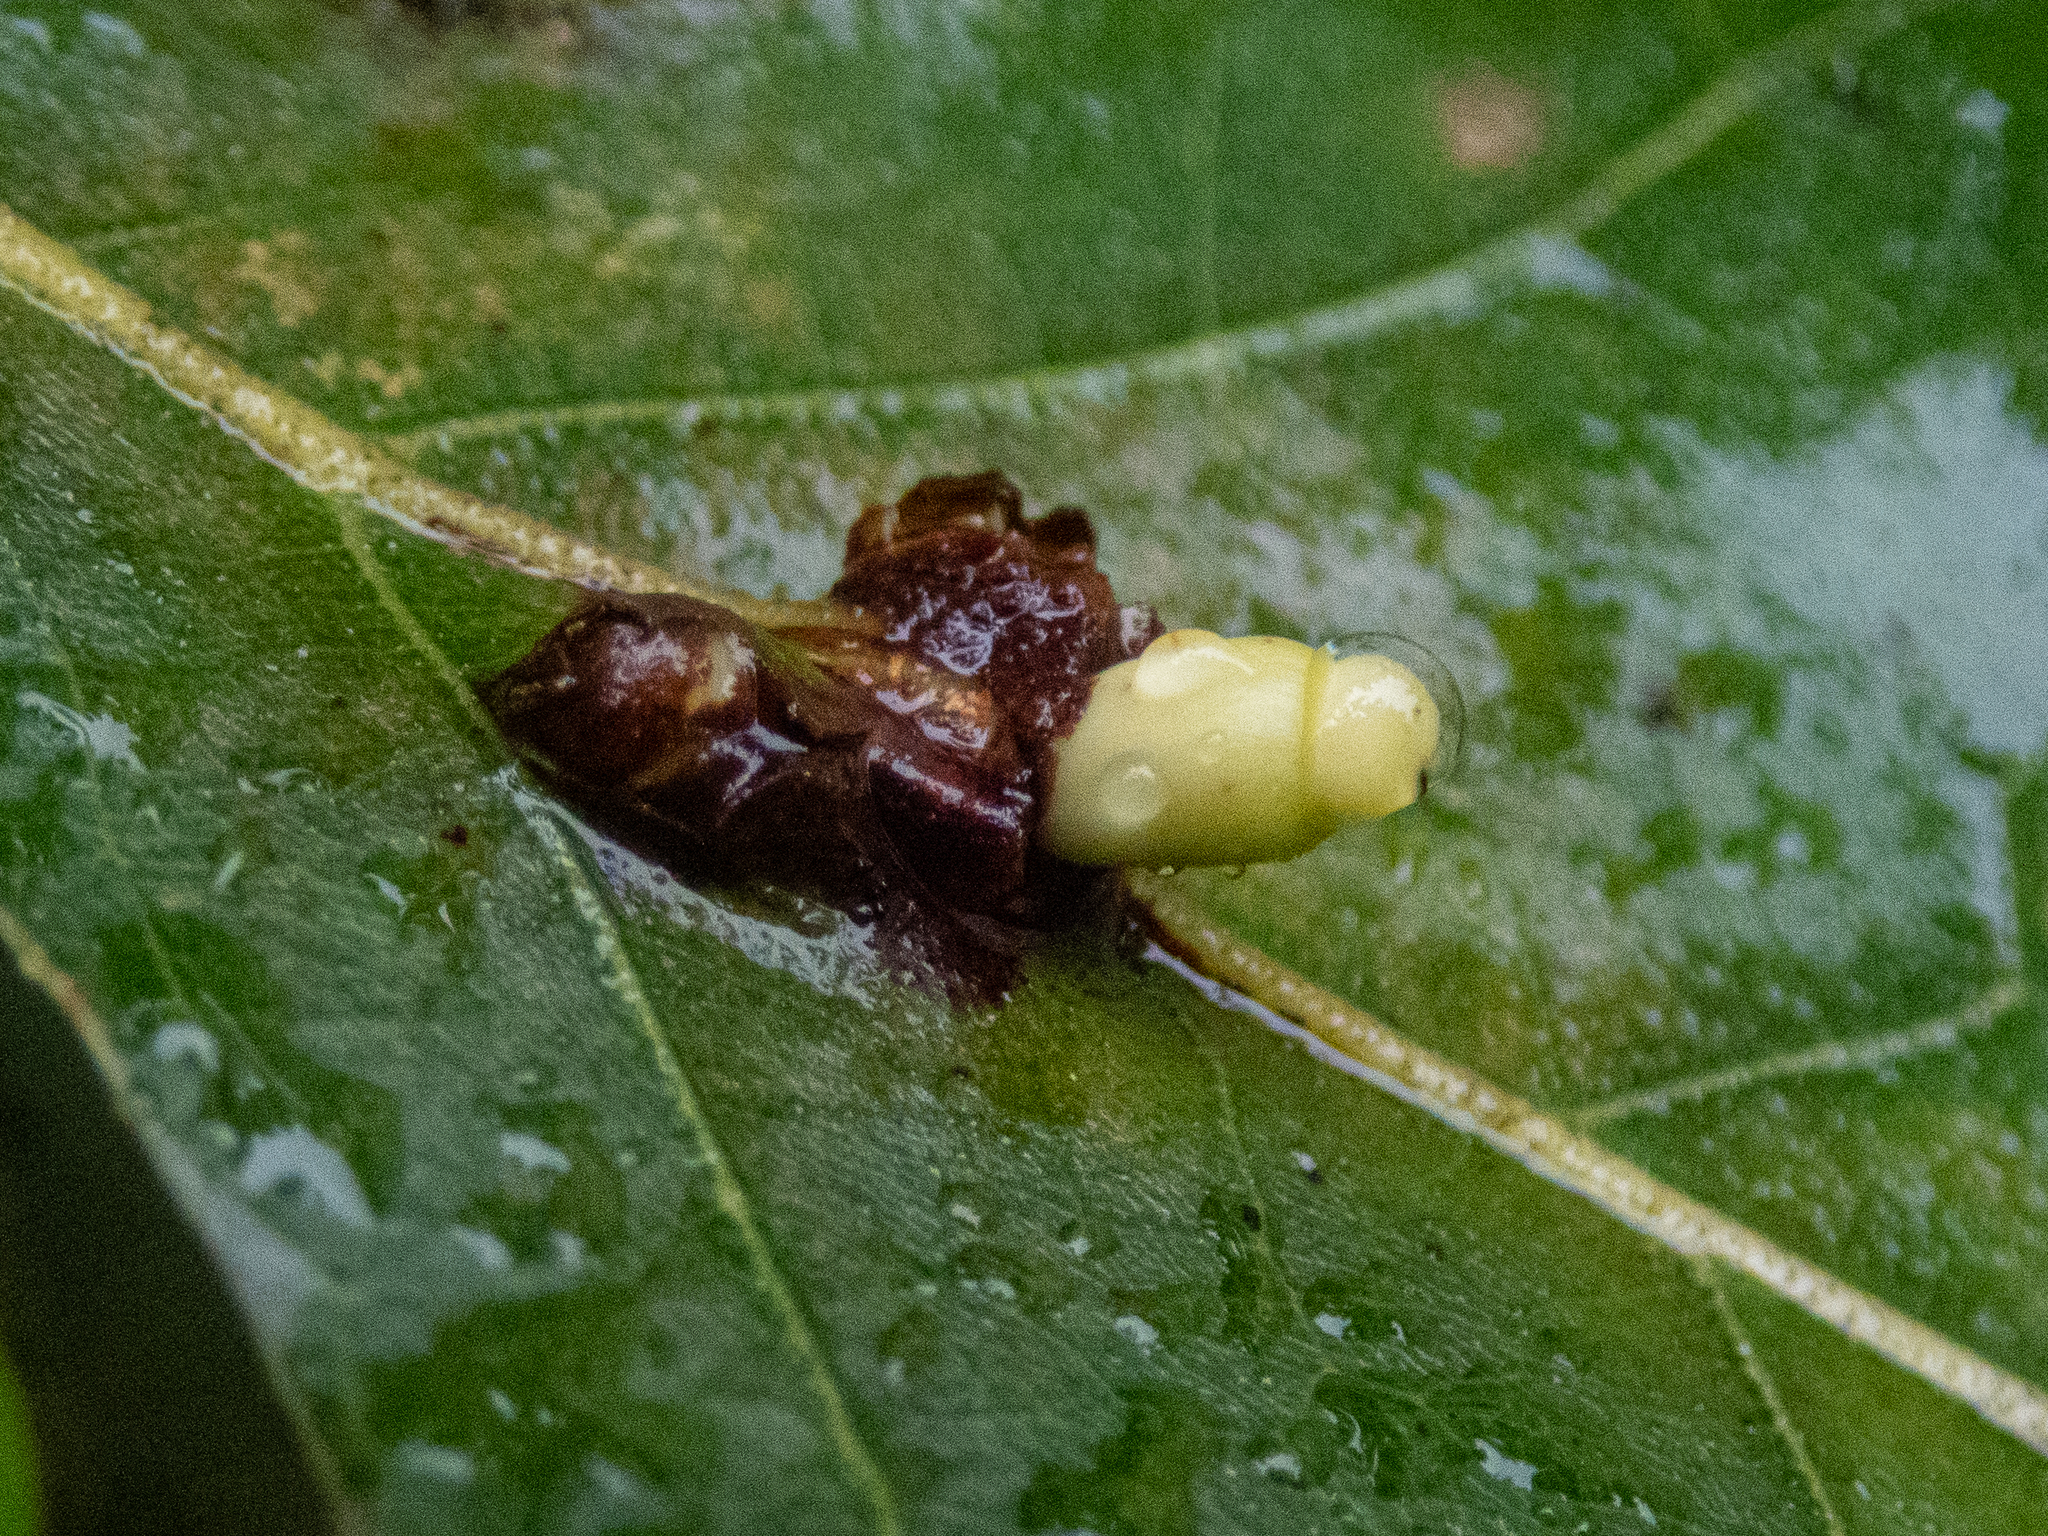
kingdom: Animalia
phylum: Arthropoda
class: Insecta
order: Hymenoptera
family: Cynipidae
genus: Kokkocynips
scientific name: Kokkocynips decidua
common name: Oak wheat gall
